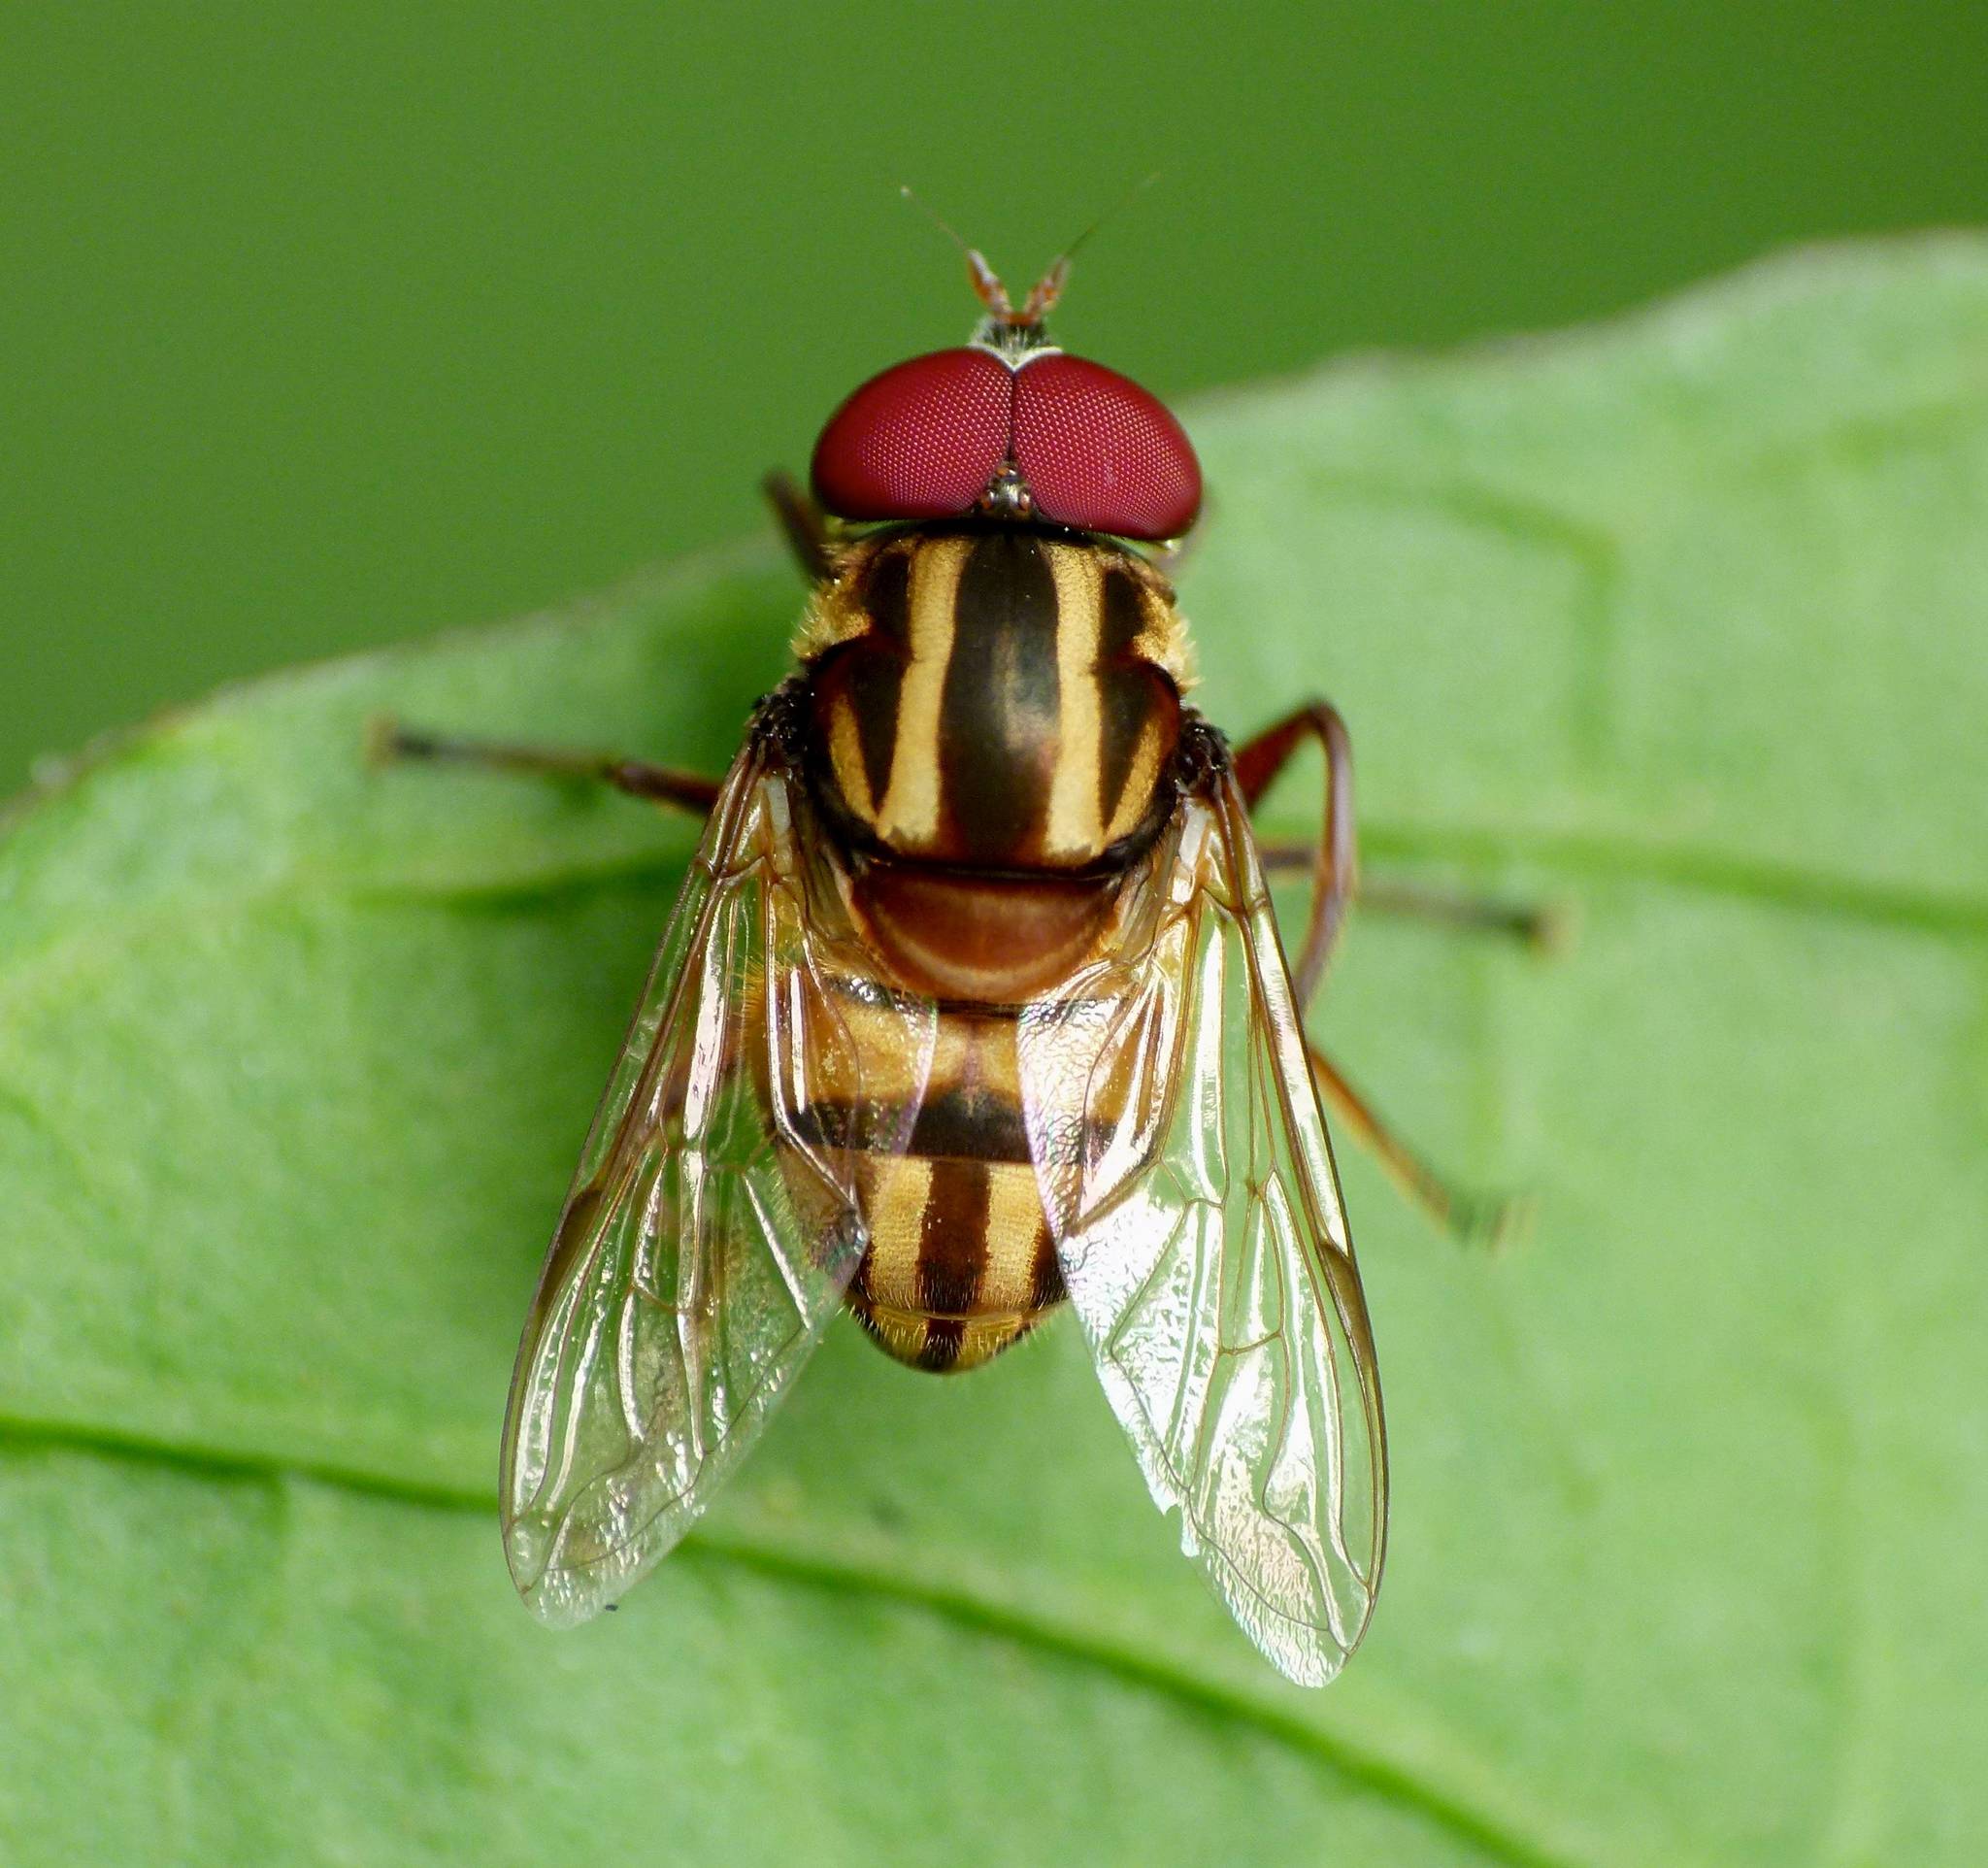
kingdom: Animalia
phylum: Arthropoda
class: Insecta
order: Diptera
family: Syrphidae
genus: Austalis
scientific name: Austalis conjucta
